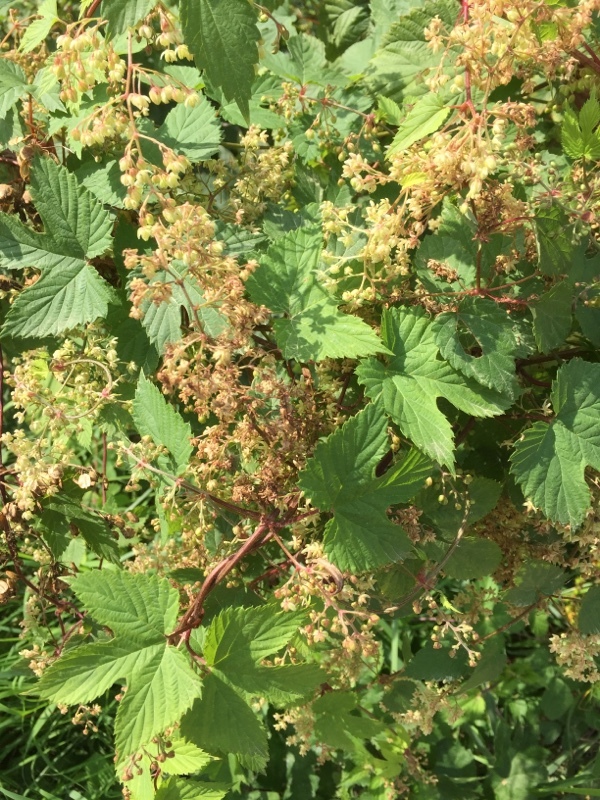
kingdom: Plantae
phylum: Tracheophyta
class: Magnoliopsida
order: Rosales
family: Cannabaceae
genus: Humulus
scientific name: Humulus lupulus
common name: Hop
